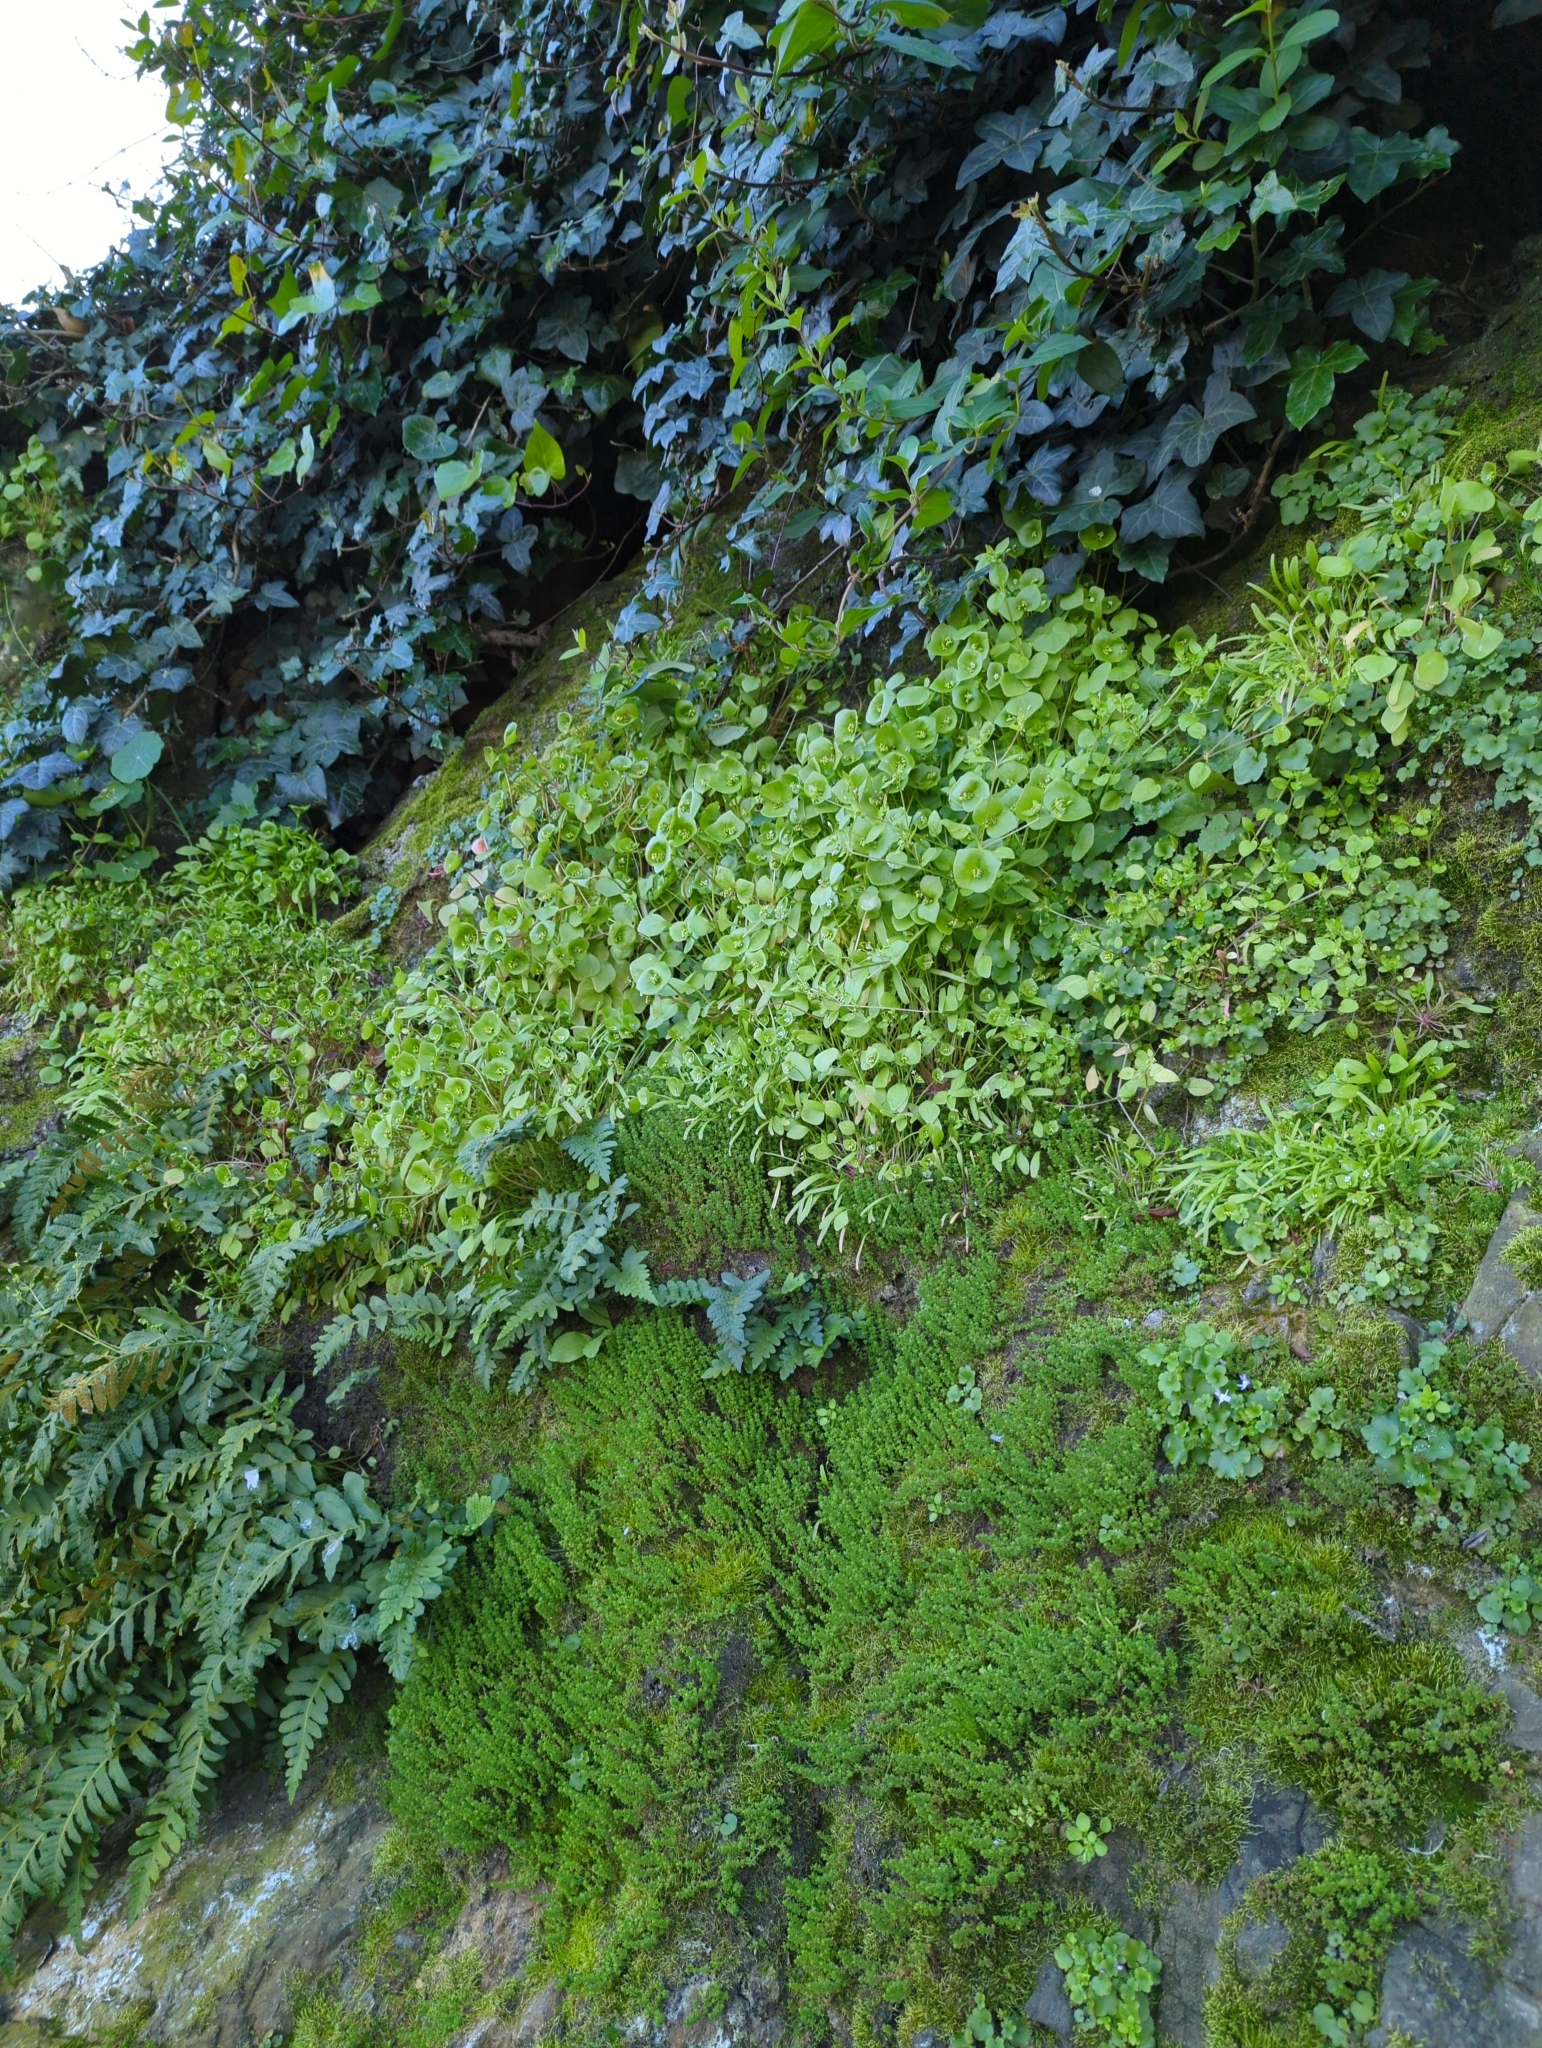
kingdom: Plantae
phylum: Tracheophyta
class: Magnoliopsida
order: Caryophyllales
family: Montiaceae
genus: Claytonia
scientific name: Claytonia parviflora
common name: Indian-lettuce
